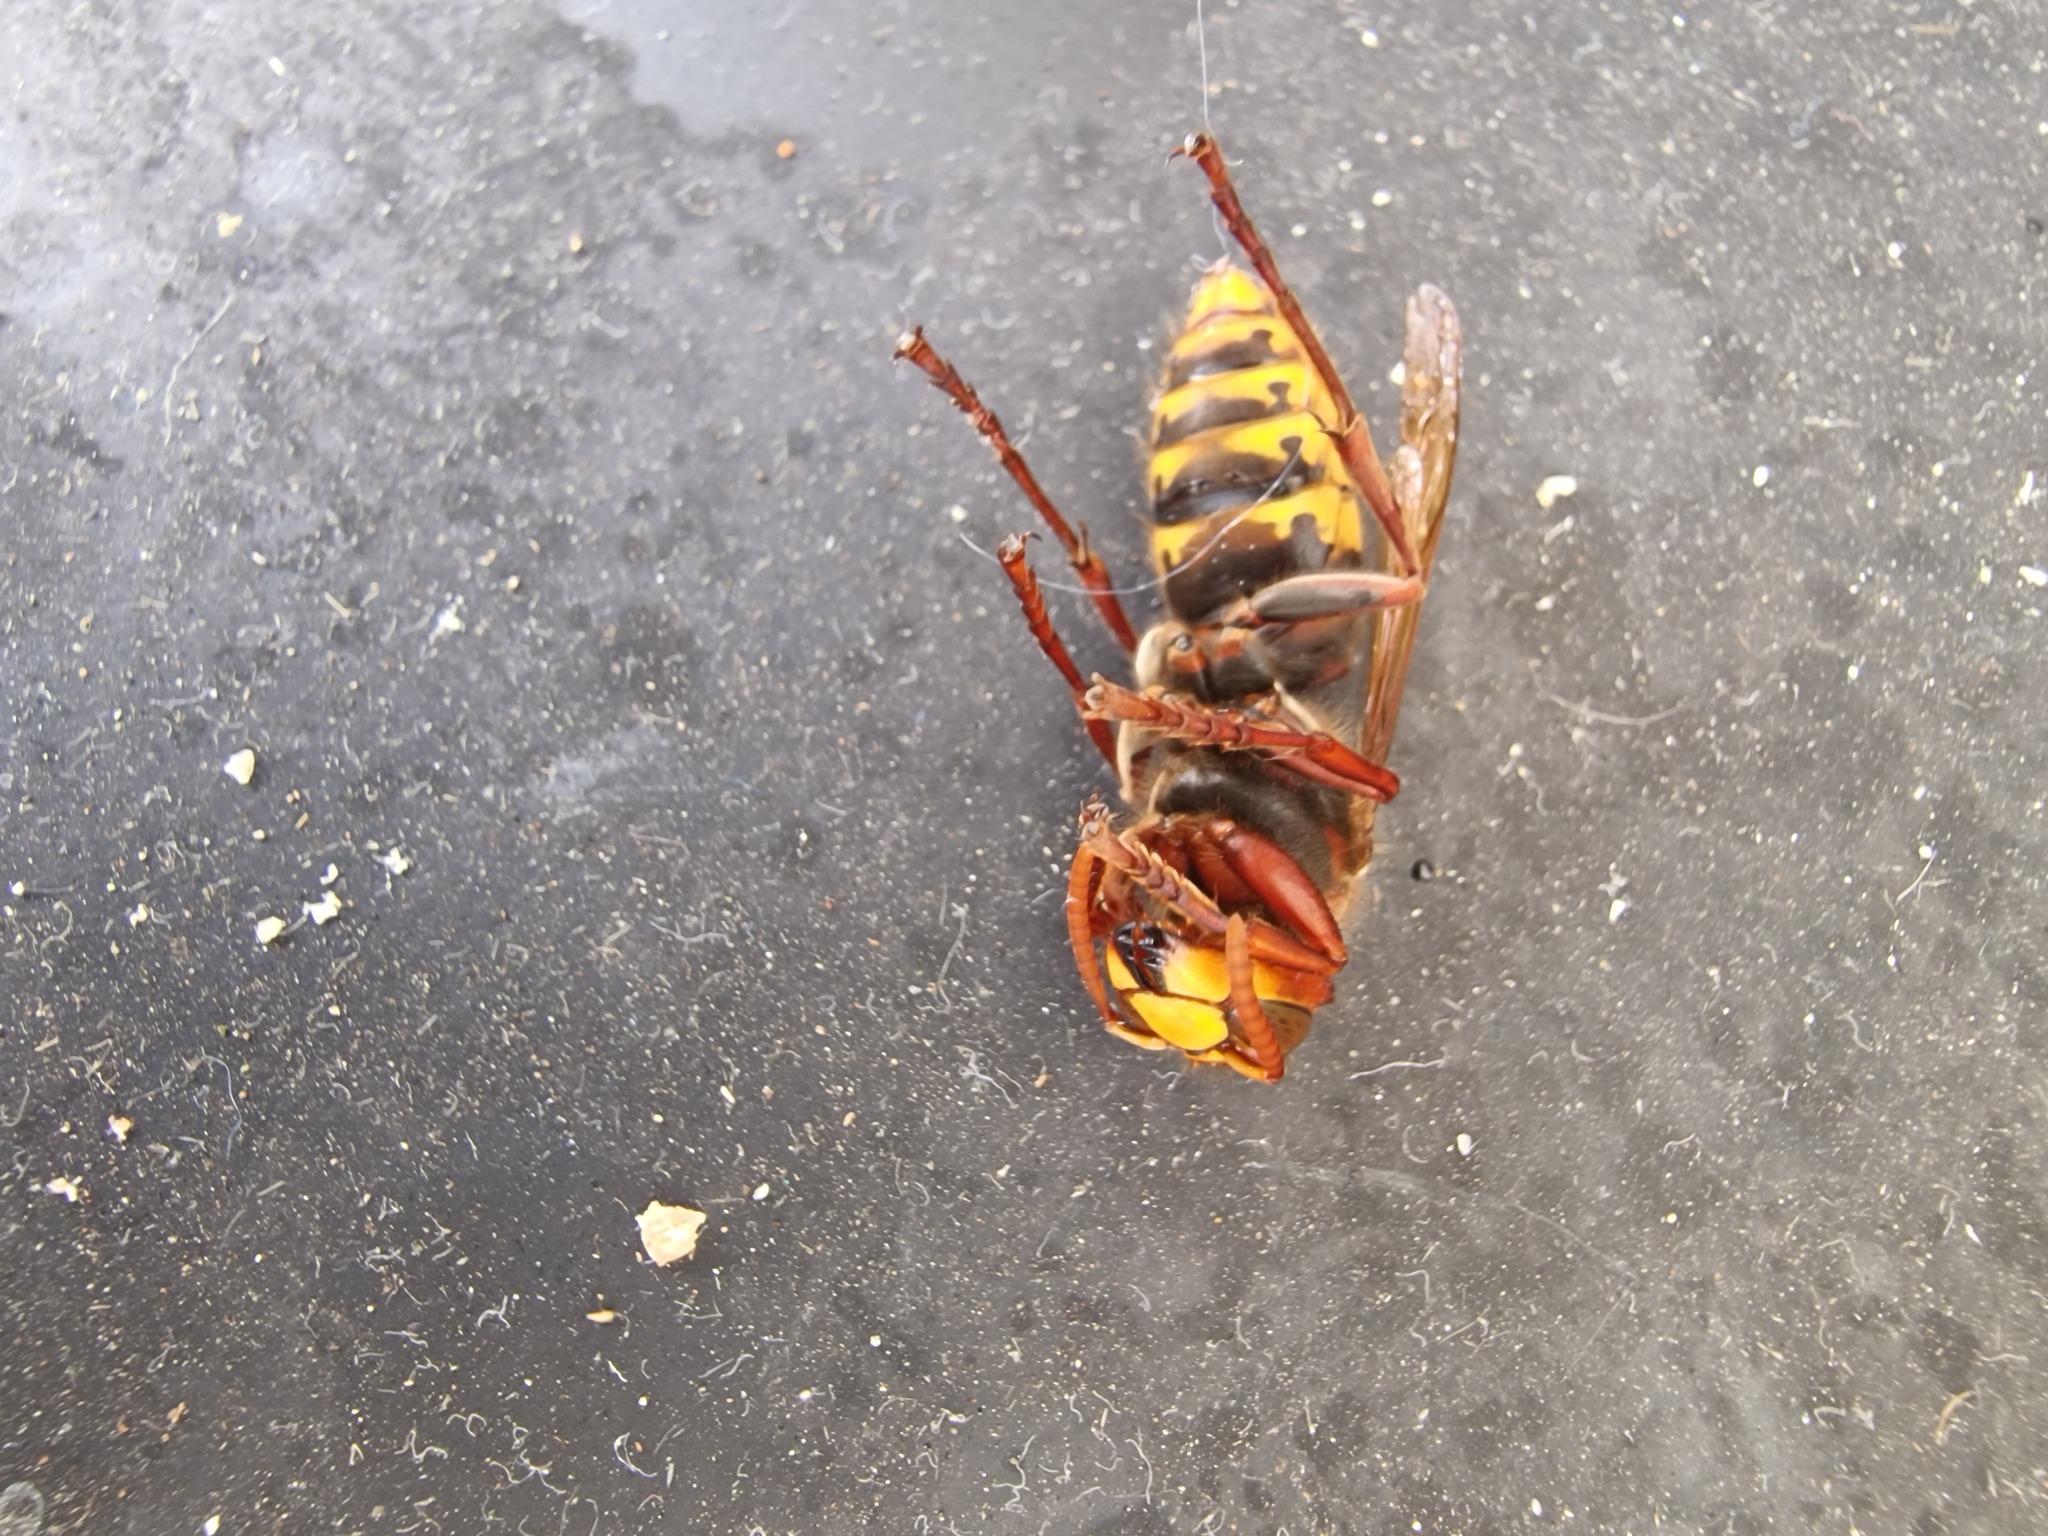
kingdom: Animalia
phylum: Arthropoda
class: Insecta
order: Hymenoptera
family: Vespidae
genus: Vespa
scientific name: Vespa crabro
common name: Hornet
